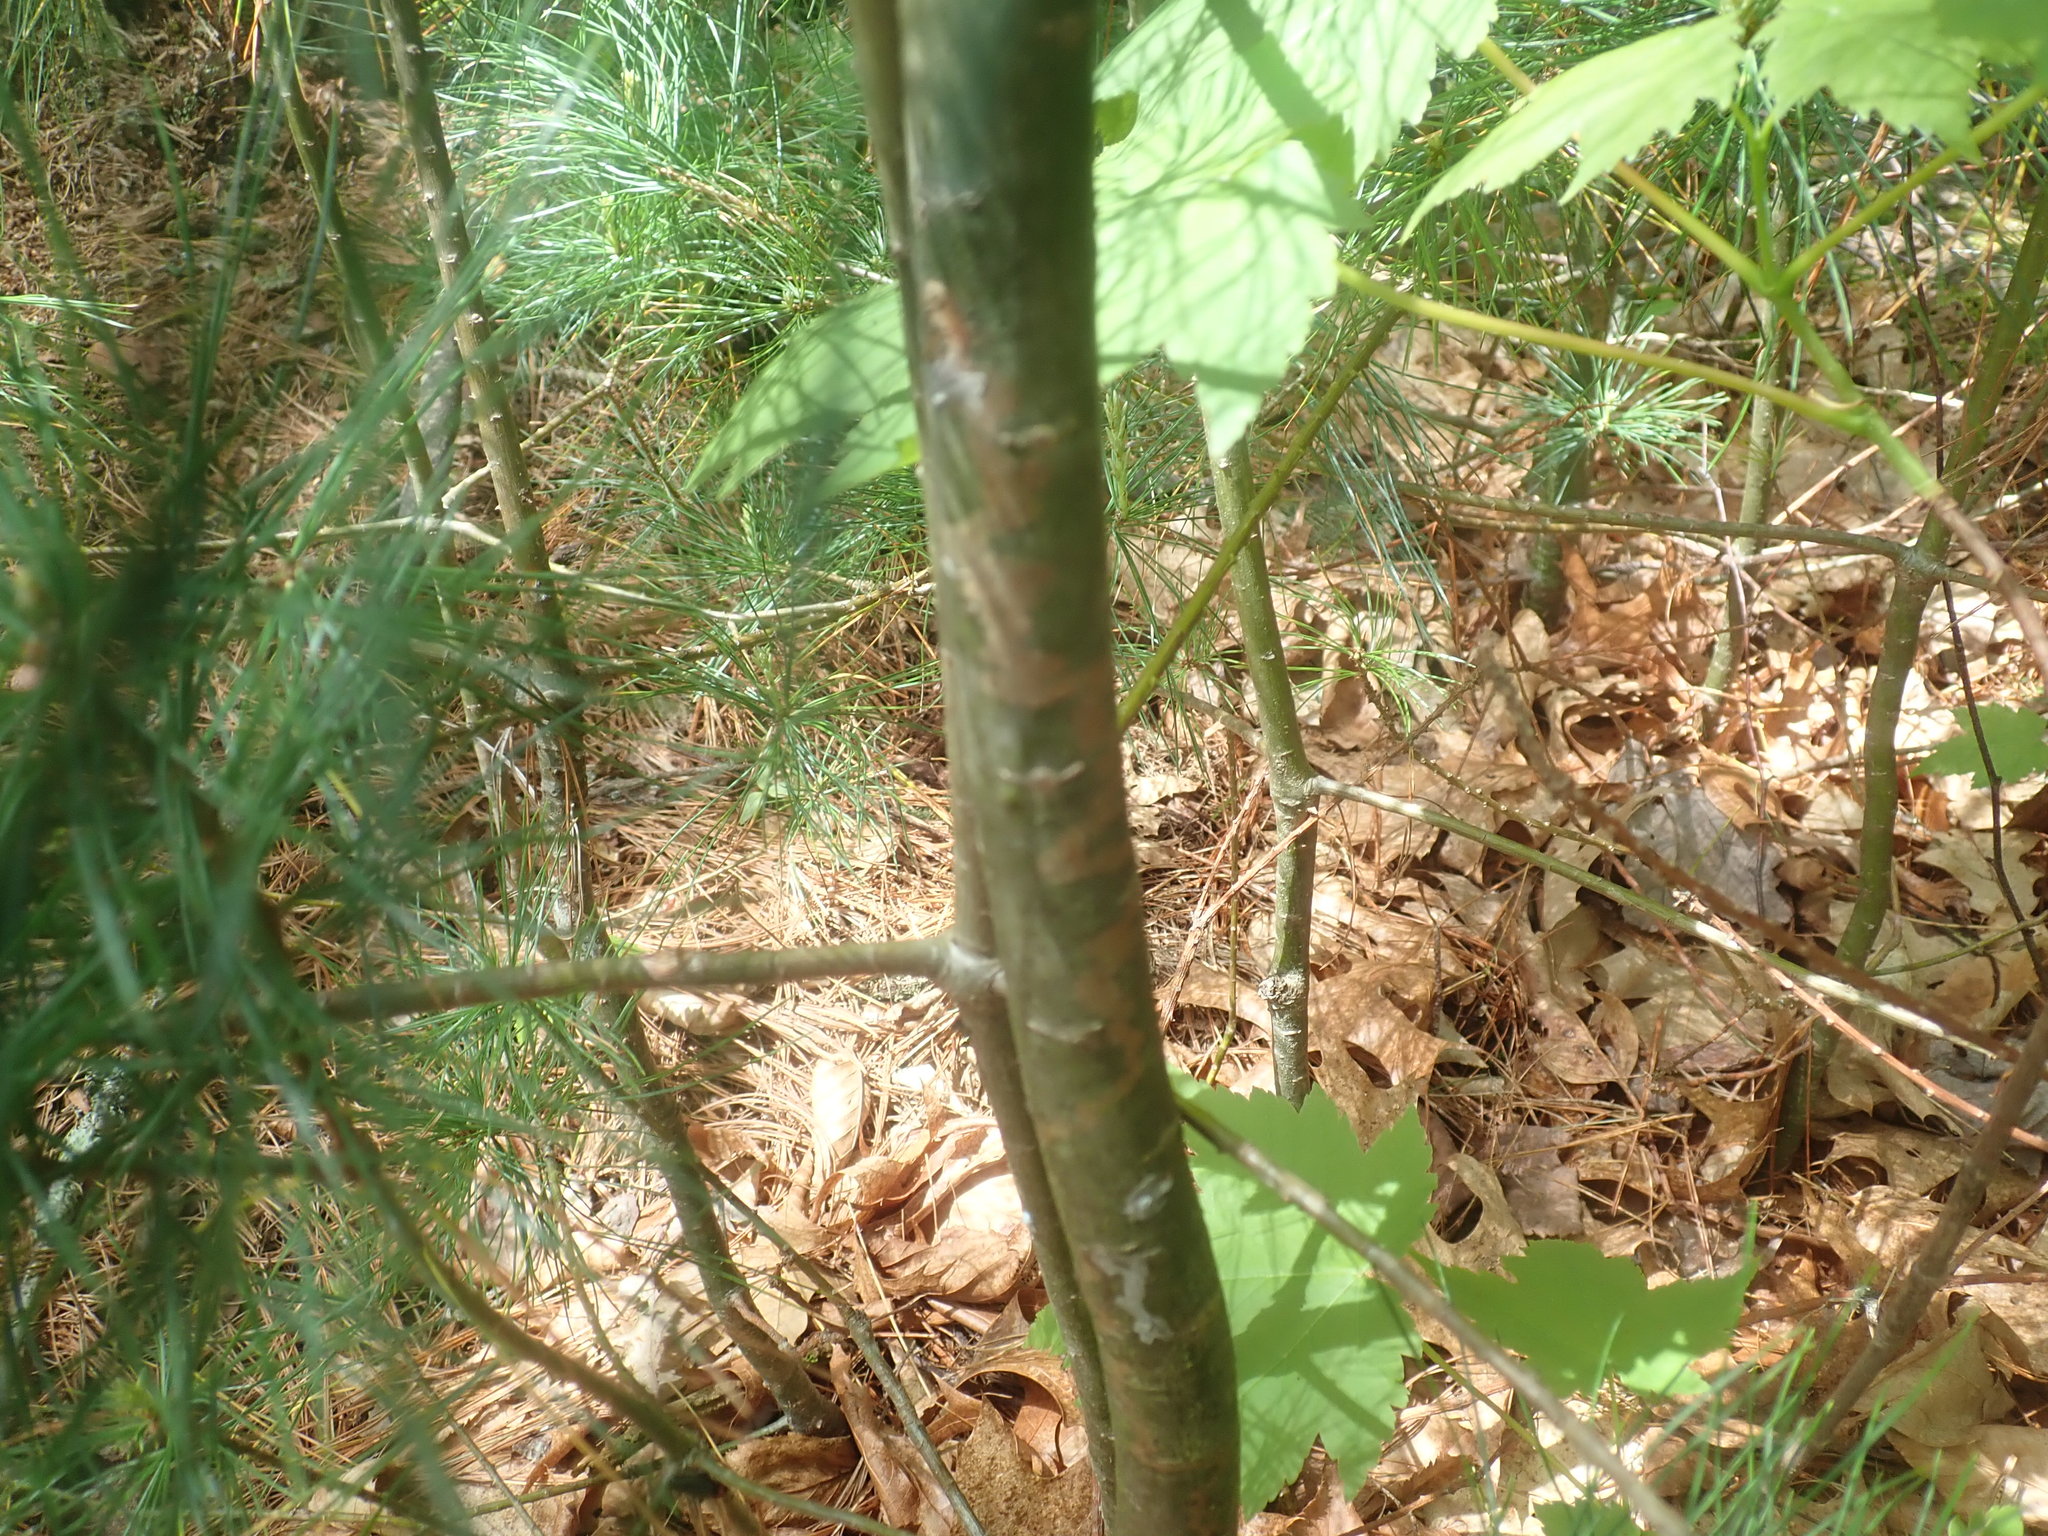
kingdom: Animalia
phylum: Arthropoda
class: Insecta
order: Lepidoptera
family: Gracillariidae
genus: Marmara
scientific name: Marmara fasciella
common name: White pine barkminer moth
